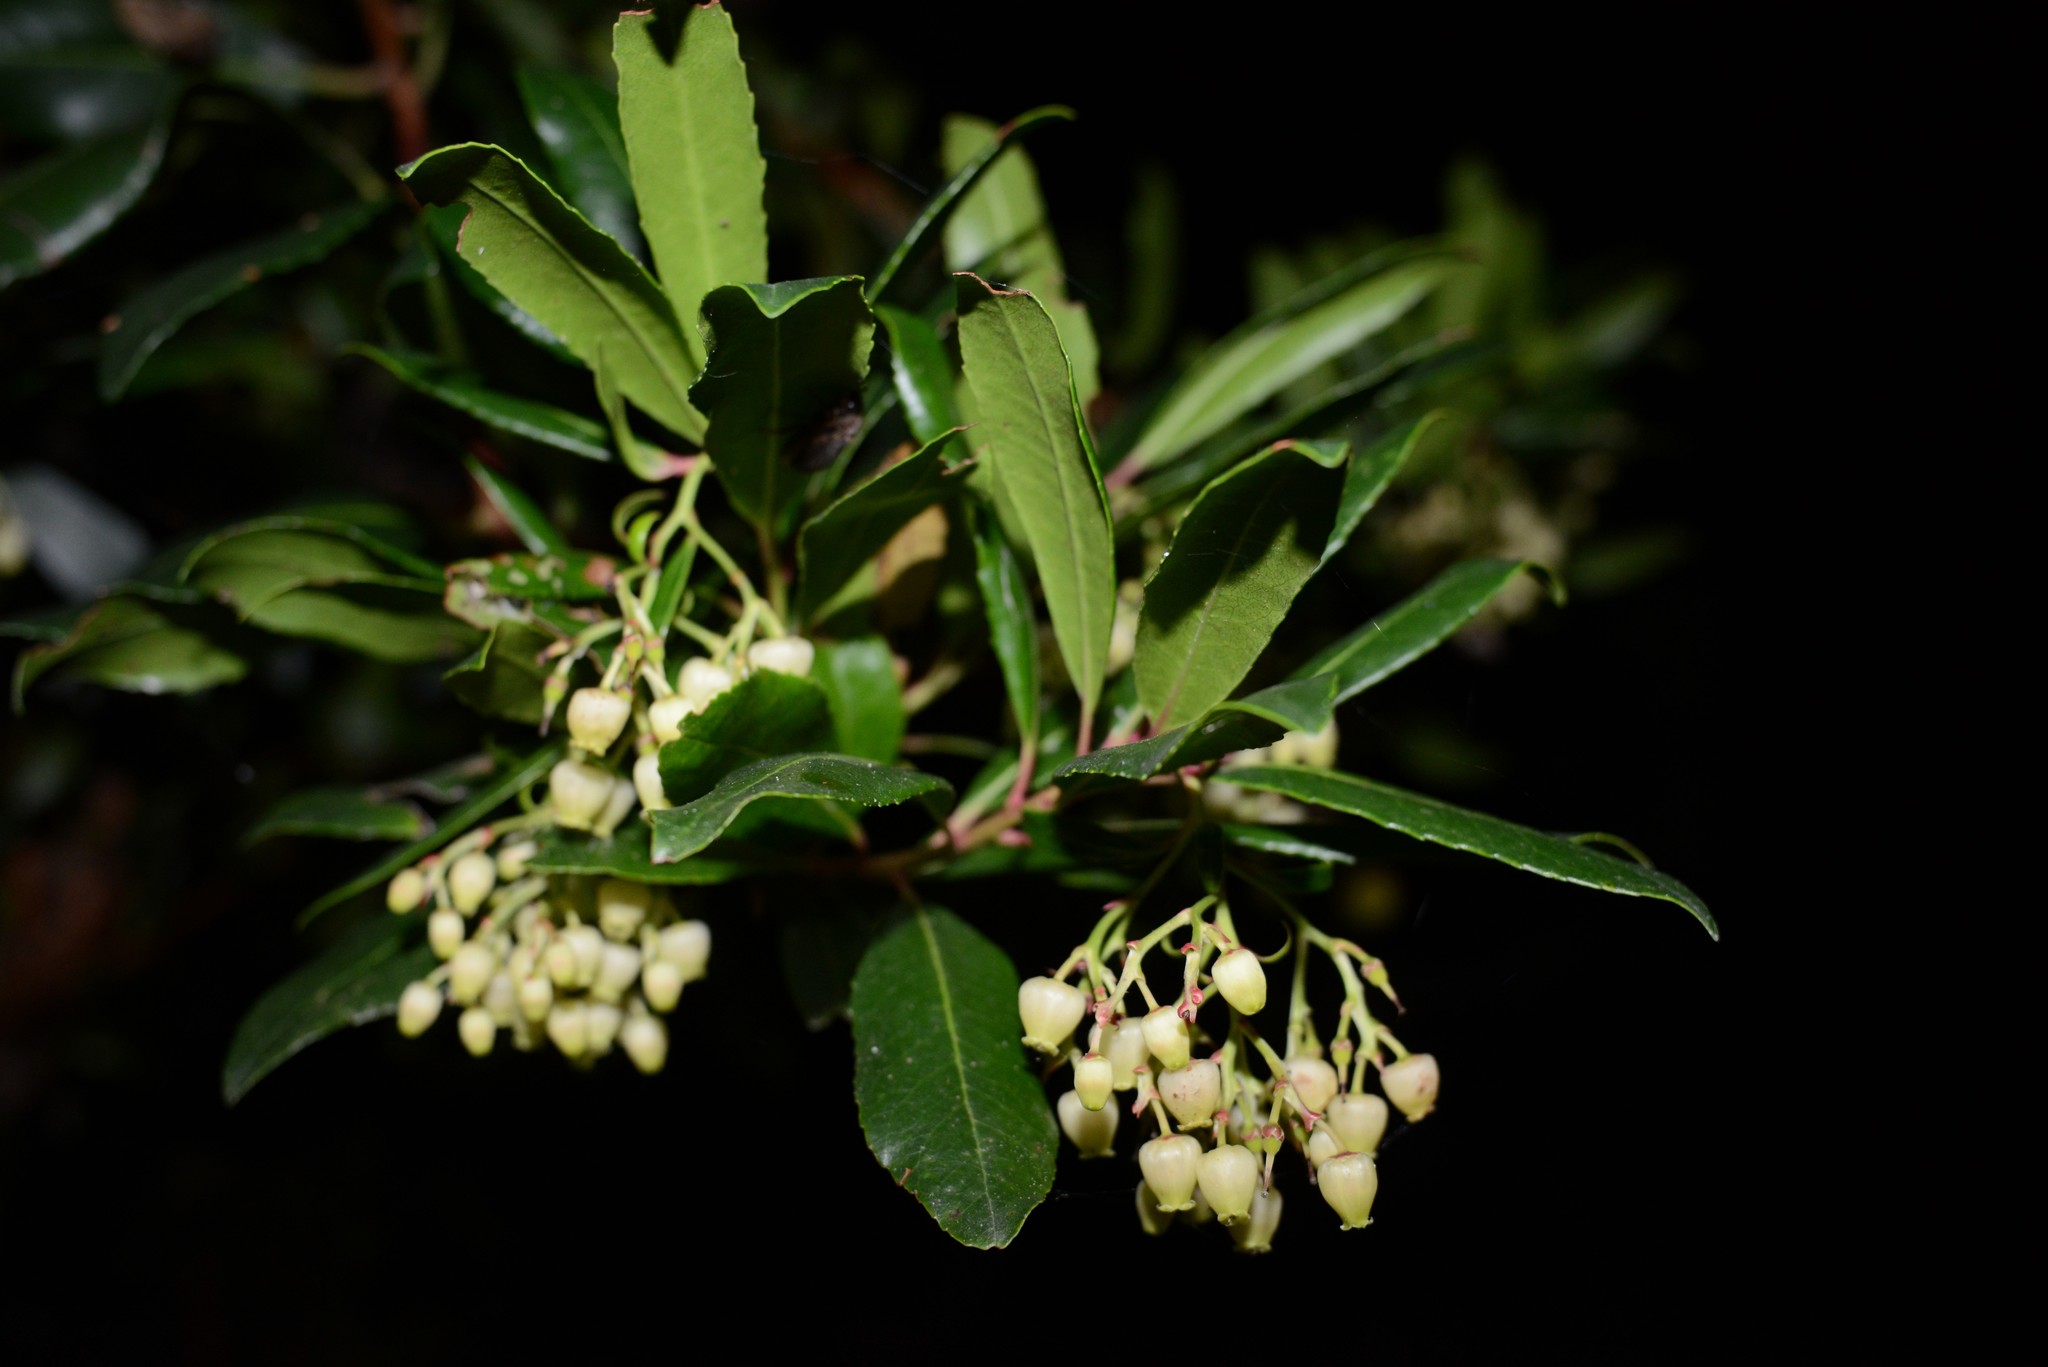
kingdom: Plantae
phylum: Tracheophyta
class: Magnoliopsida
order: Ericales
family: Ericaceae
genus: Arbutus
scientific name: Arbutus unedo
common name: Strawberry-tree
